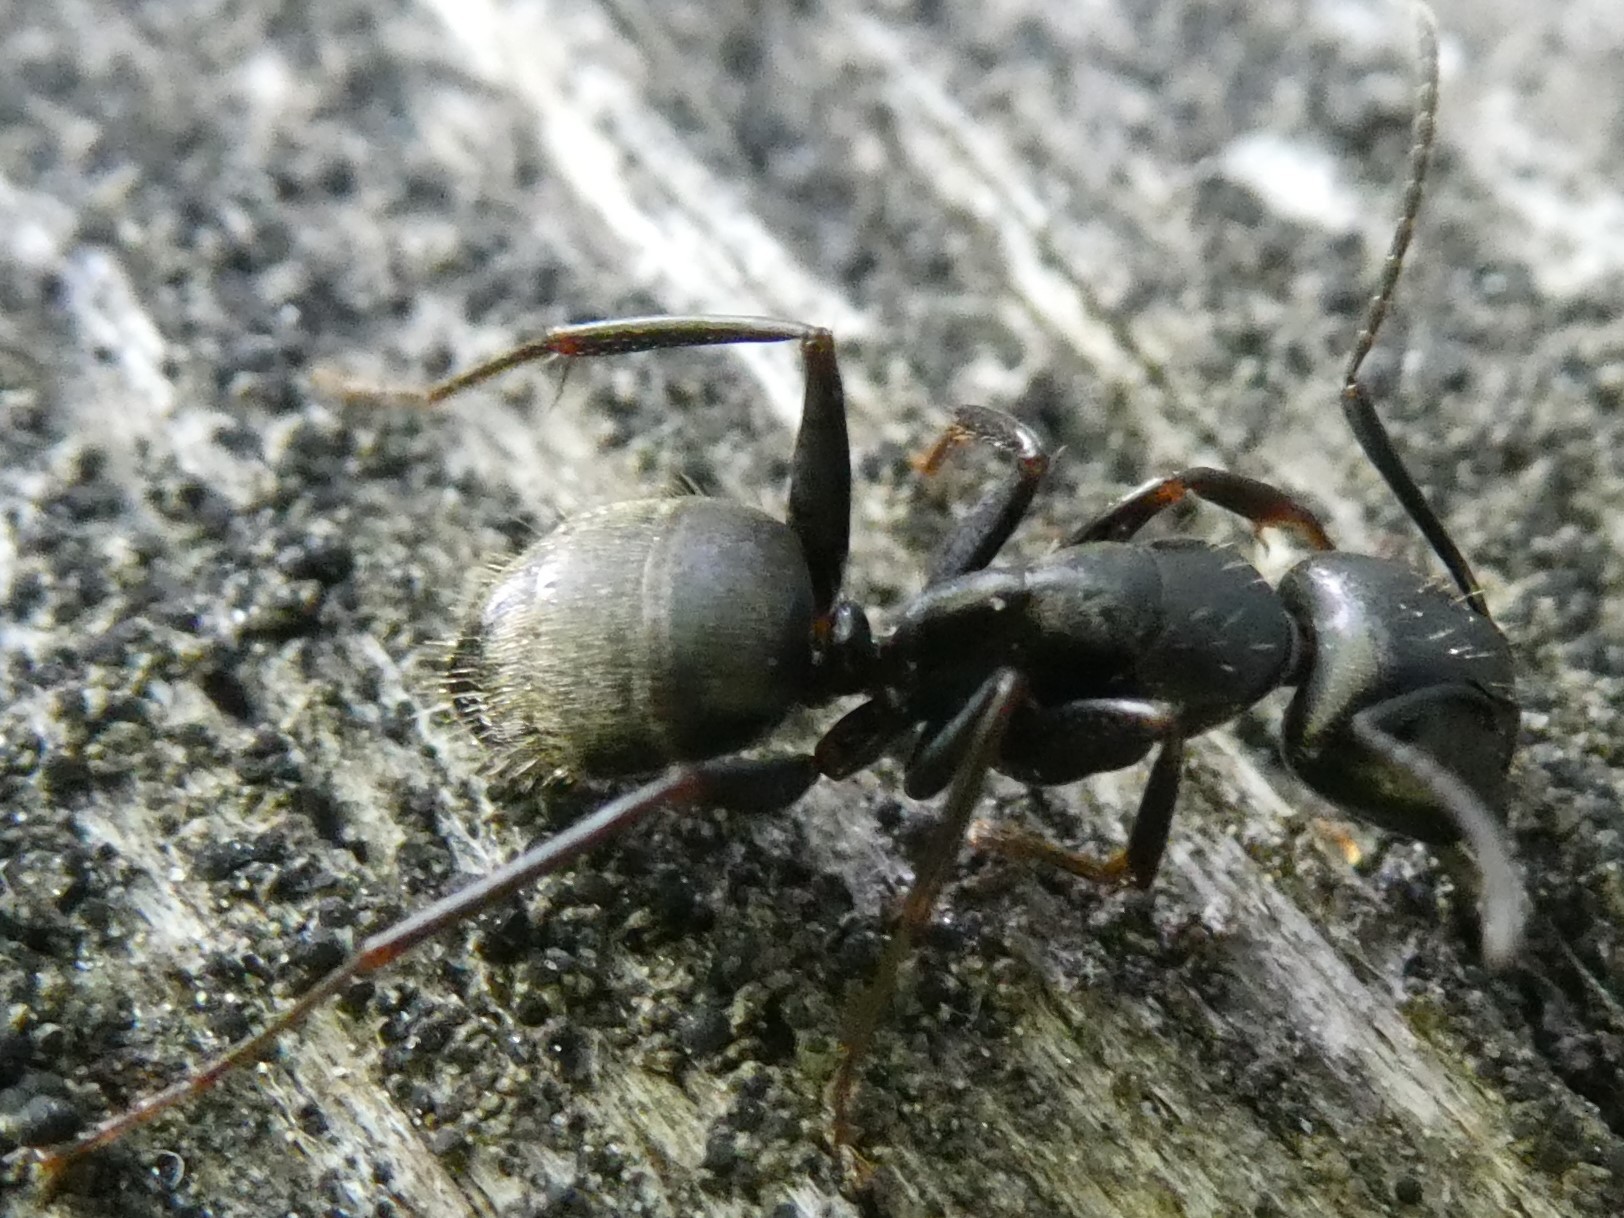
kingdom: Animalia
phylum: Arthropoda
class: Insecta
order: Hymenoptera
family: Formicidae
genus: Camponotus
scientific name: Camponotus pennsylvanicus
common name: Black carpenter ant
